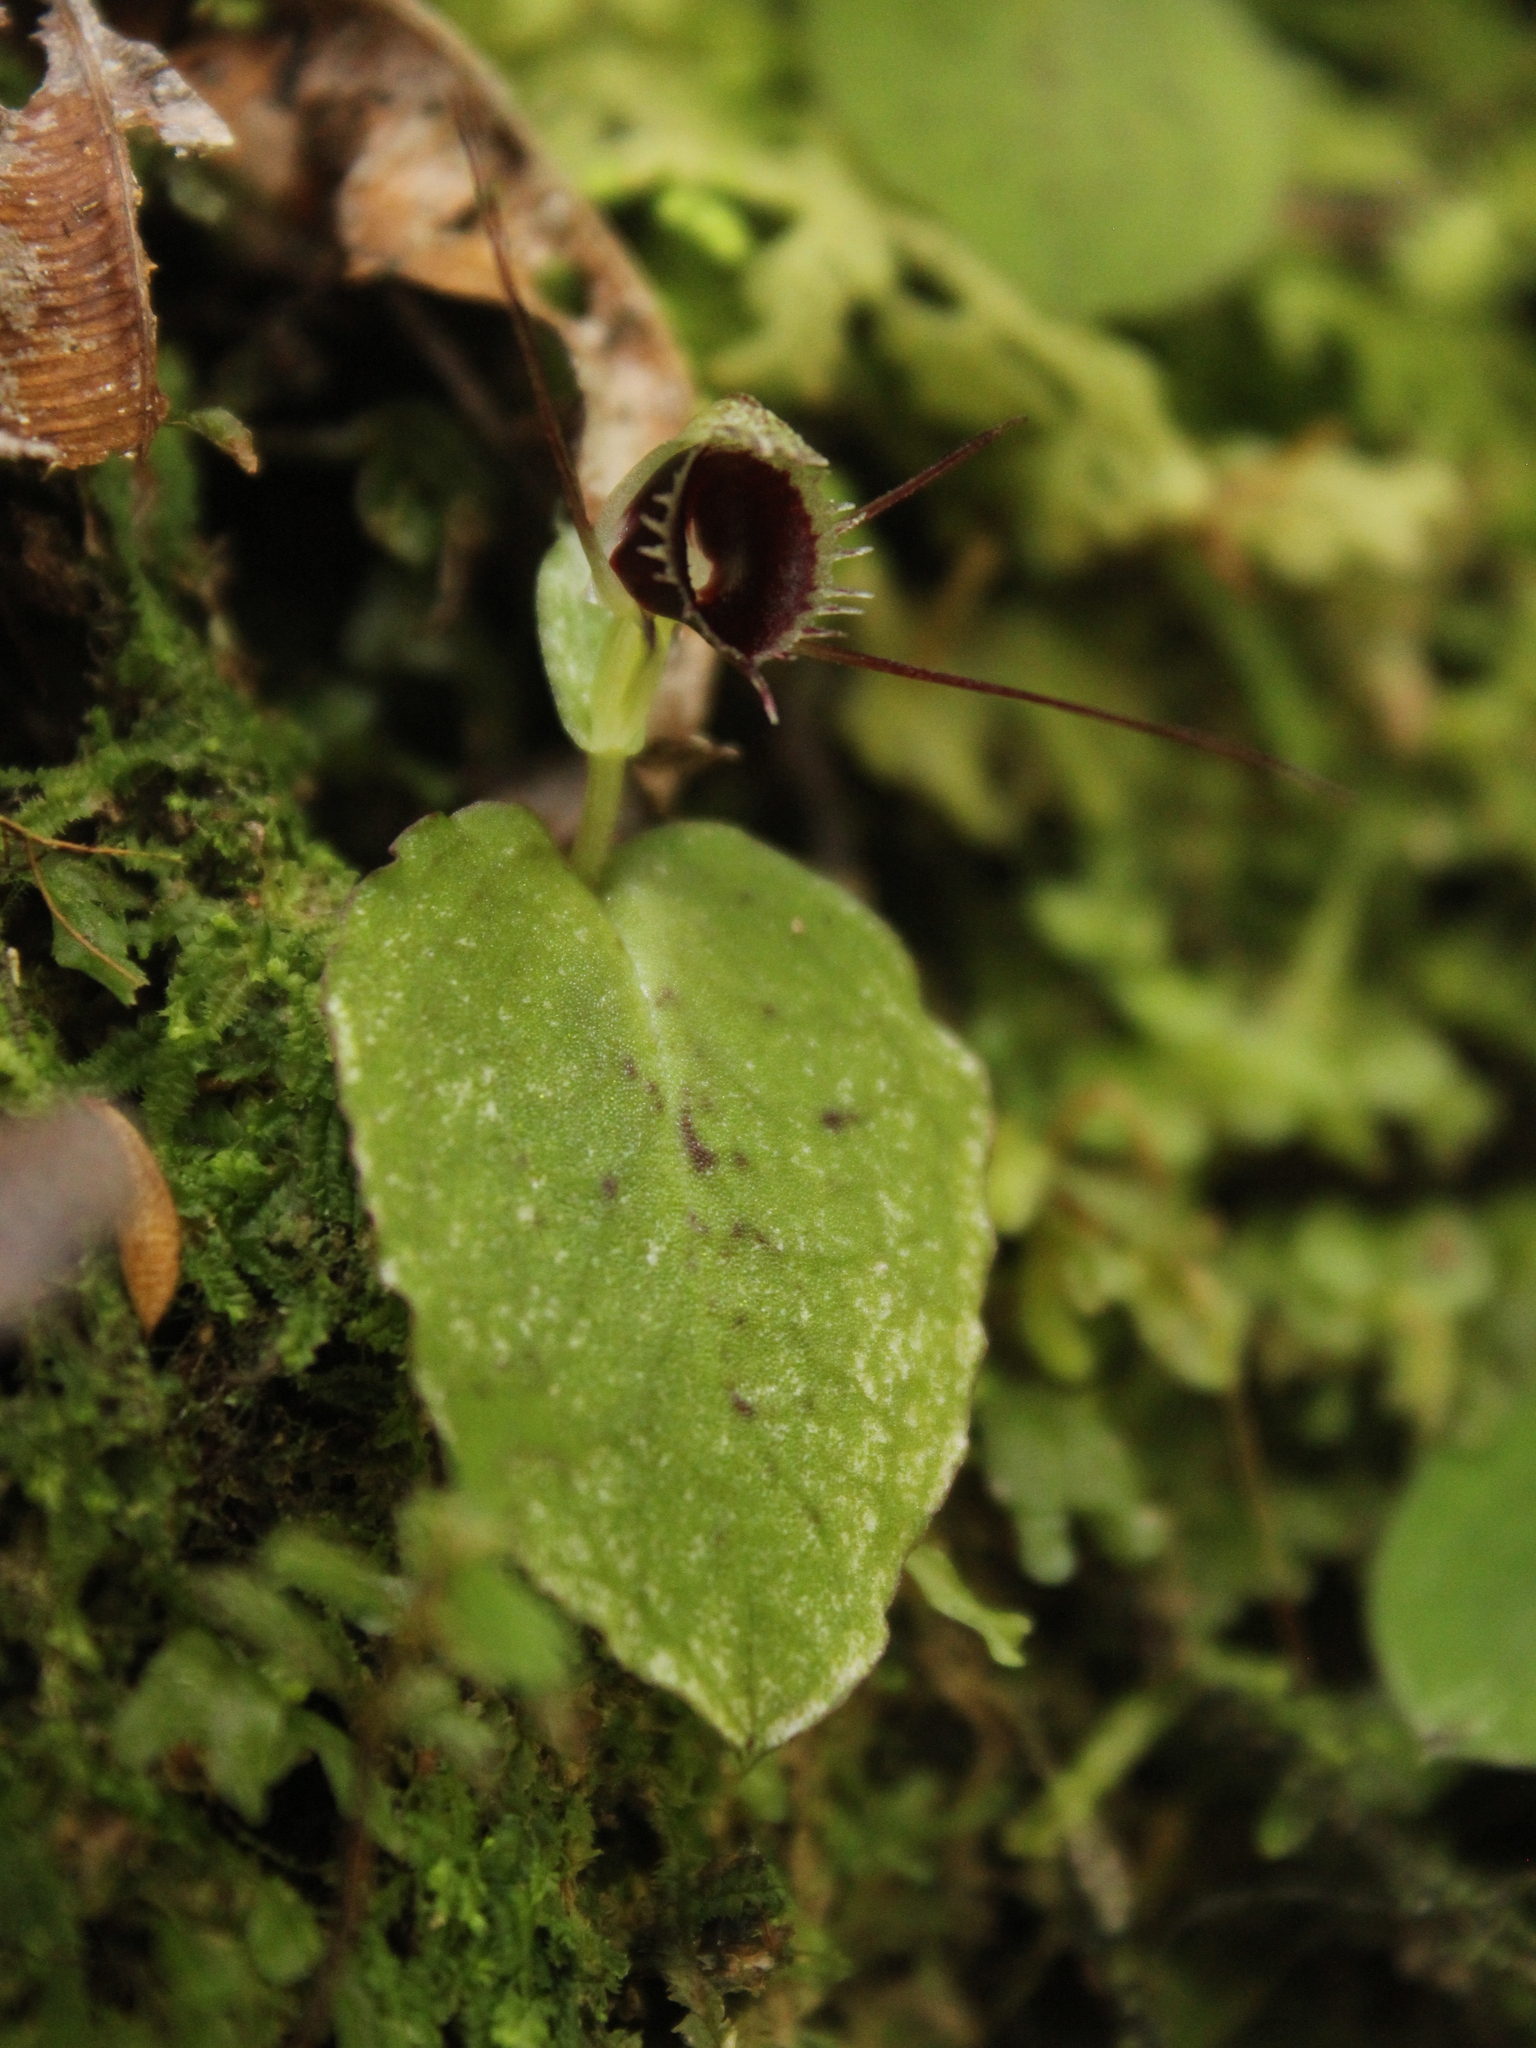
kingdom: Plantae
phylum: Tracheophyta
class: Liliopsida
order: Asparagales
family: Orchidaceae
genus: Corybas
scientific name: Corybas oblongus
